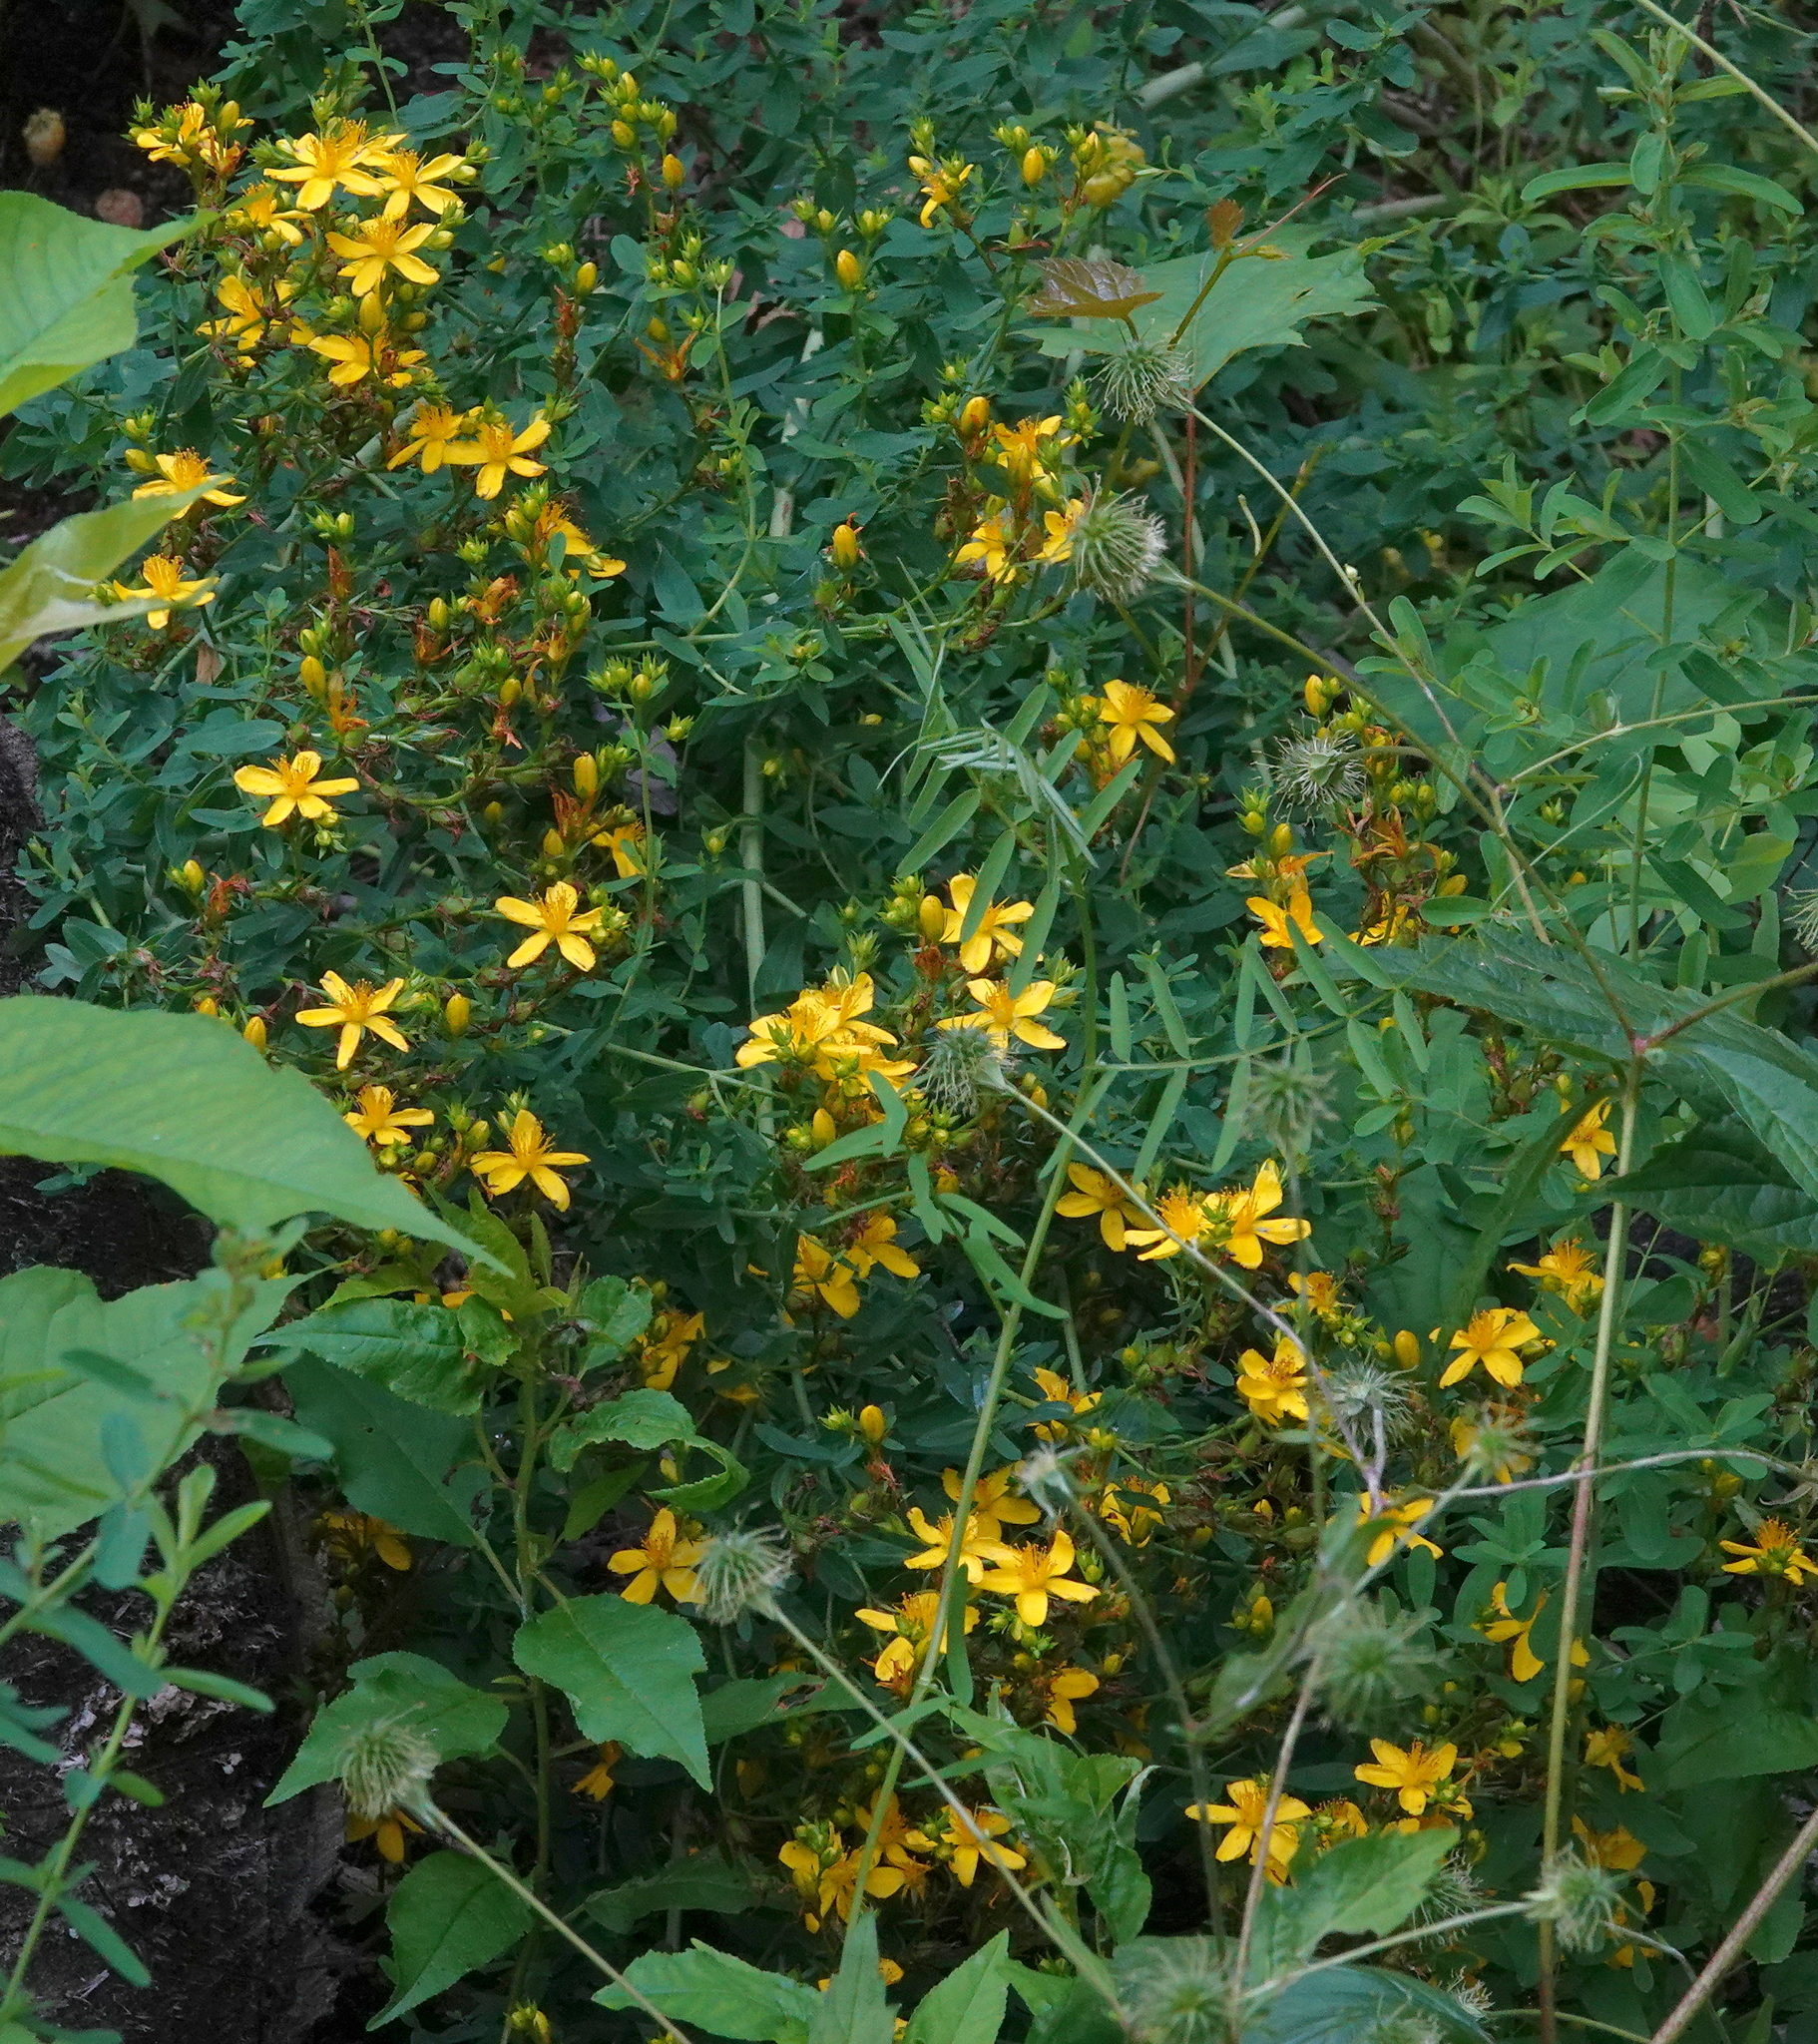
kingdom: Plantae
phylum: Tracheophyta
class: Magnoliopsida
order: Malpighiales
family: Hypericaceae
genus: Hypericum
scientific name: Hypericum perforatum
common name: Common st. johnswort
